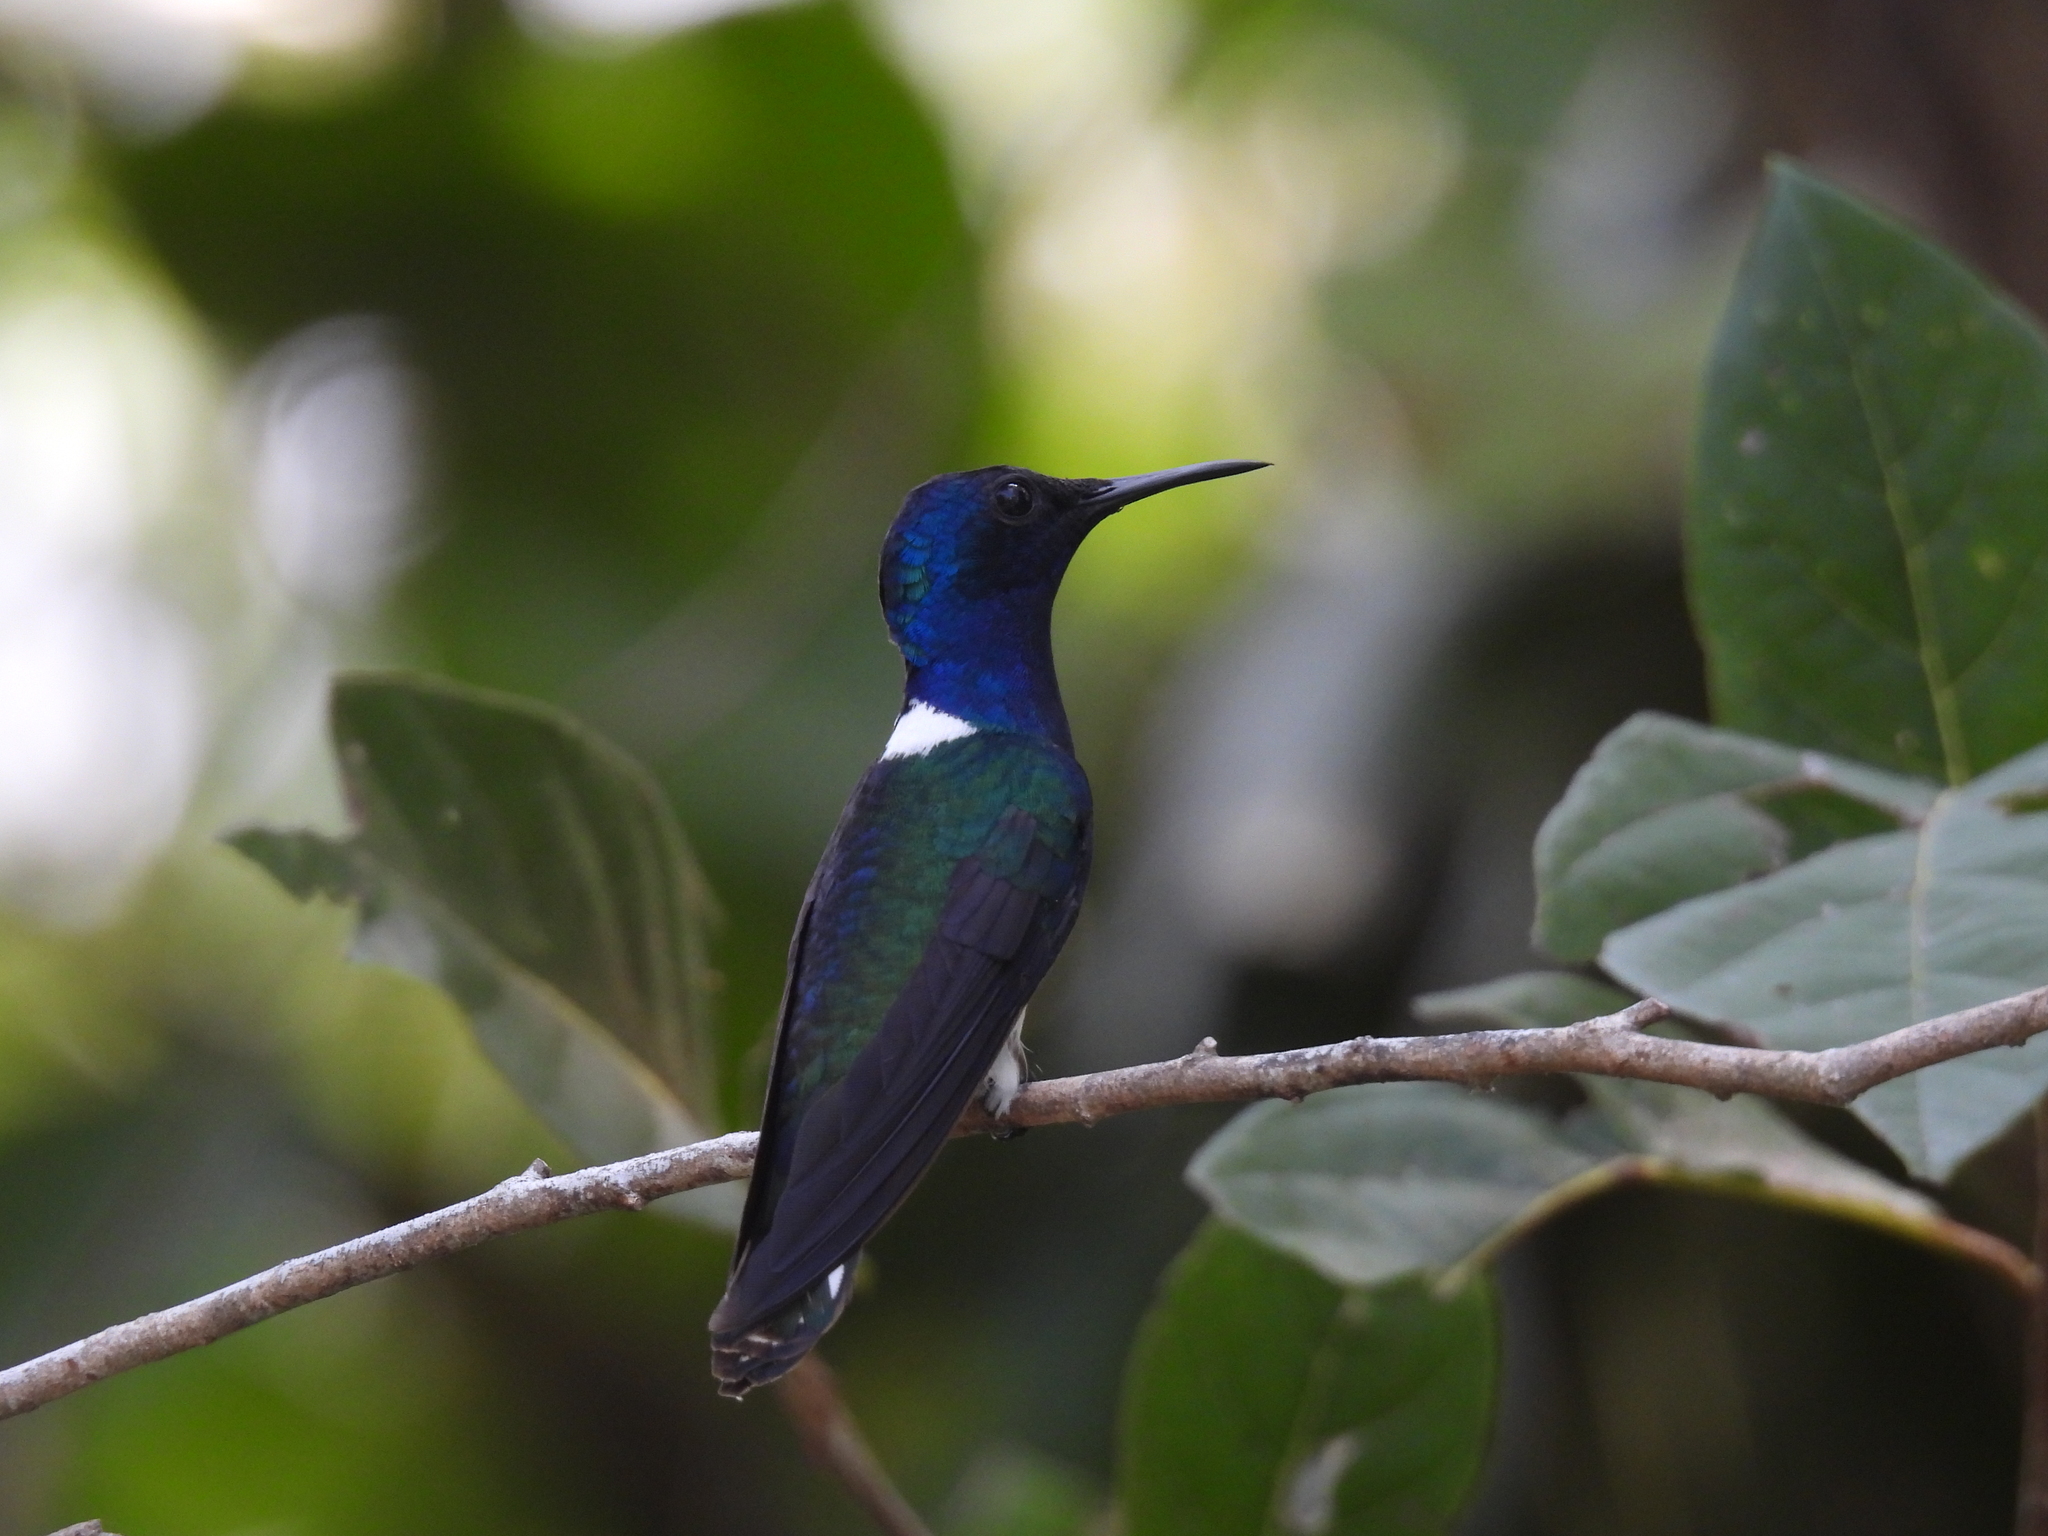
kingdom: Animalia
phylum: Chordata
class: Aves
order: Apodiformes
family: Trochilidae
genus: Florisuga
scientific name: Florisuga mellivora
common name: White-necked jacobin
